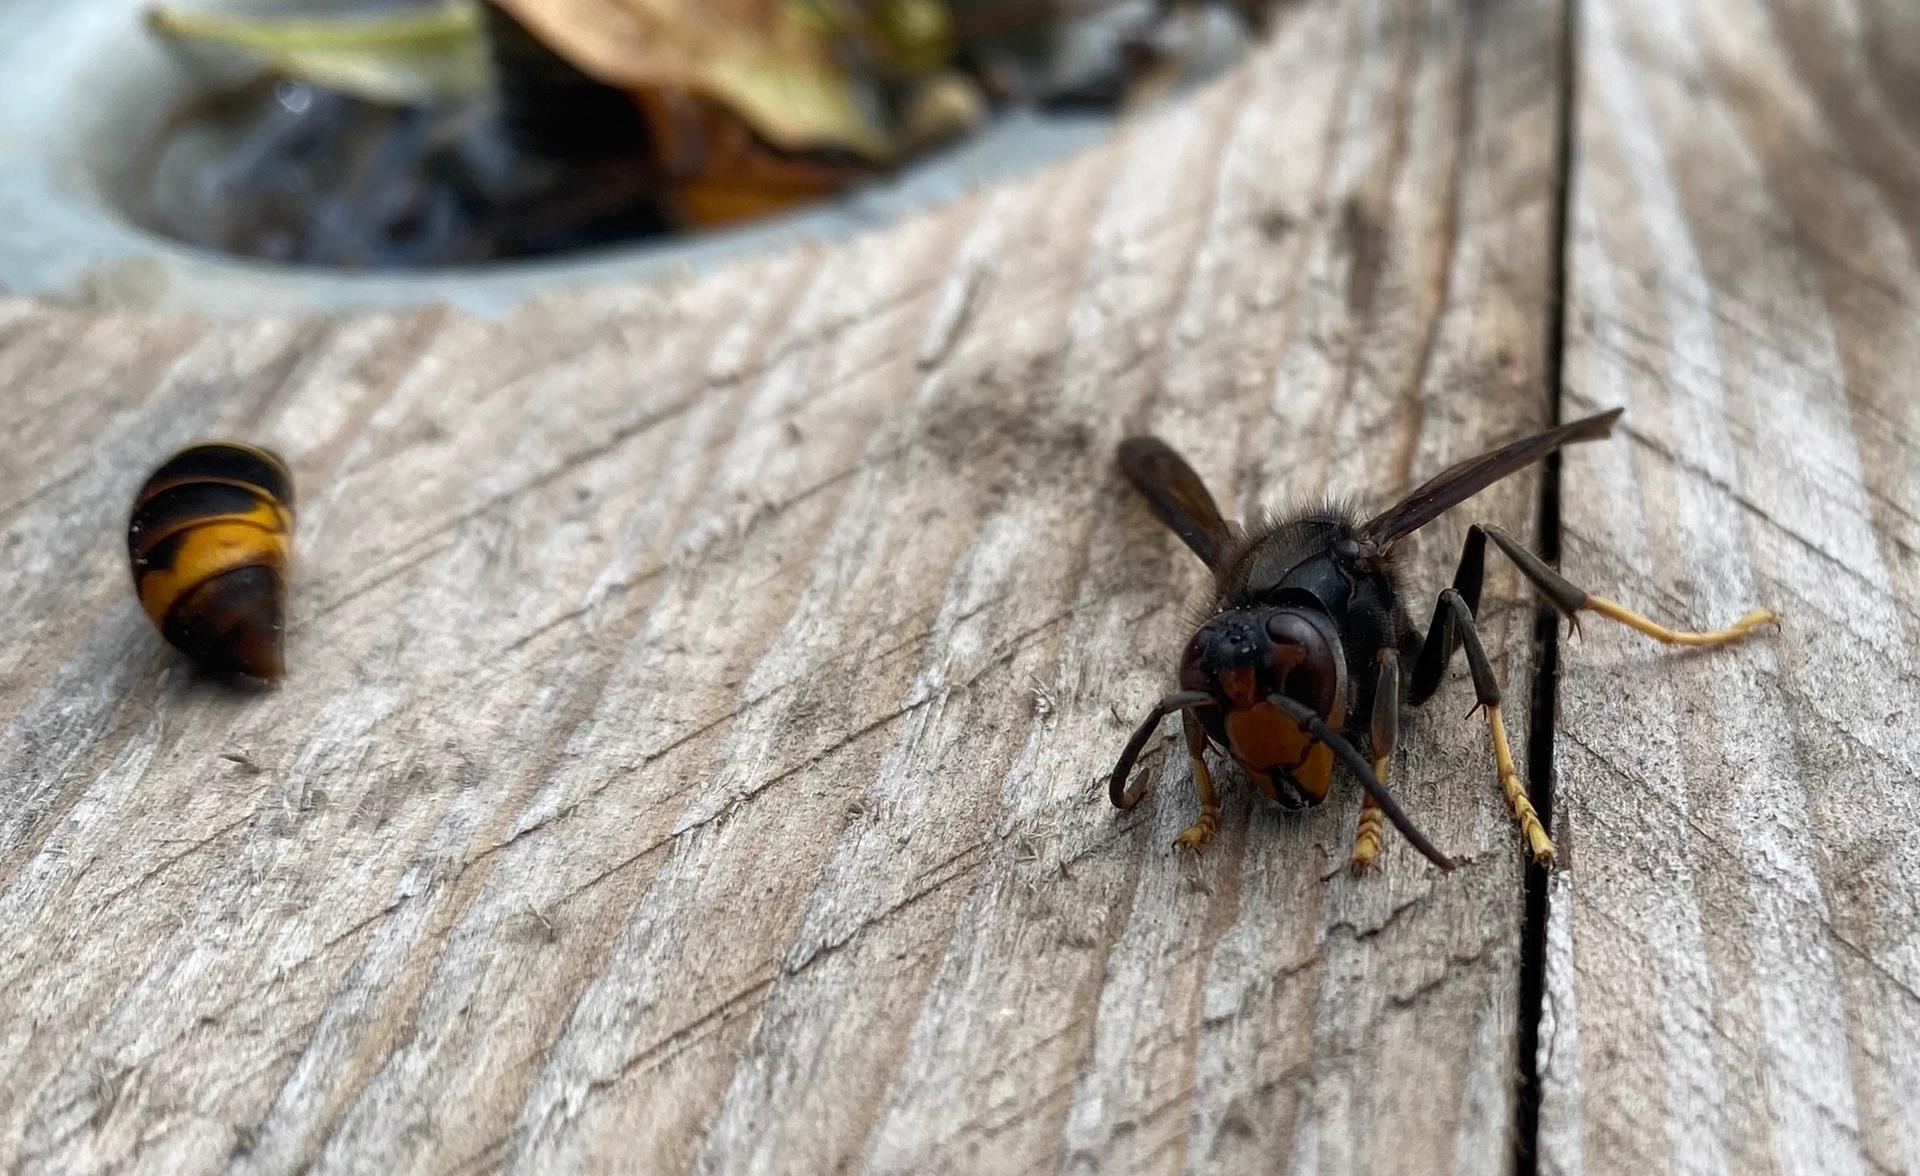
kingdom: Animalia
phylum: Arthropoda
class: Insecta
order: Hymenoptera
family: Vespidae
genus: Vespa
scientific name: Vespa velutina
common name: Asian hornet
